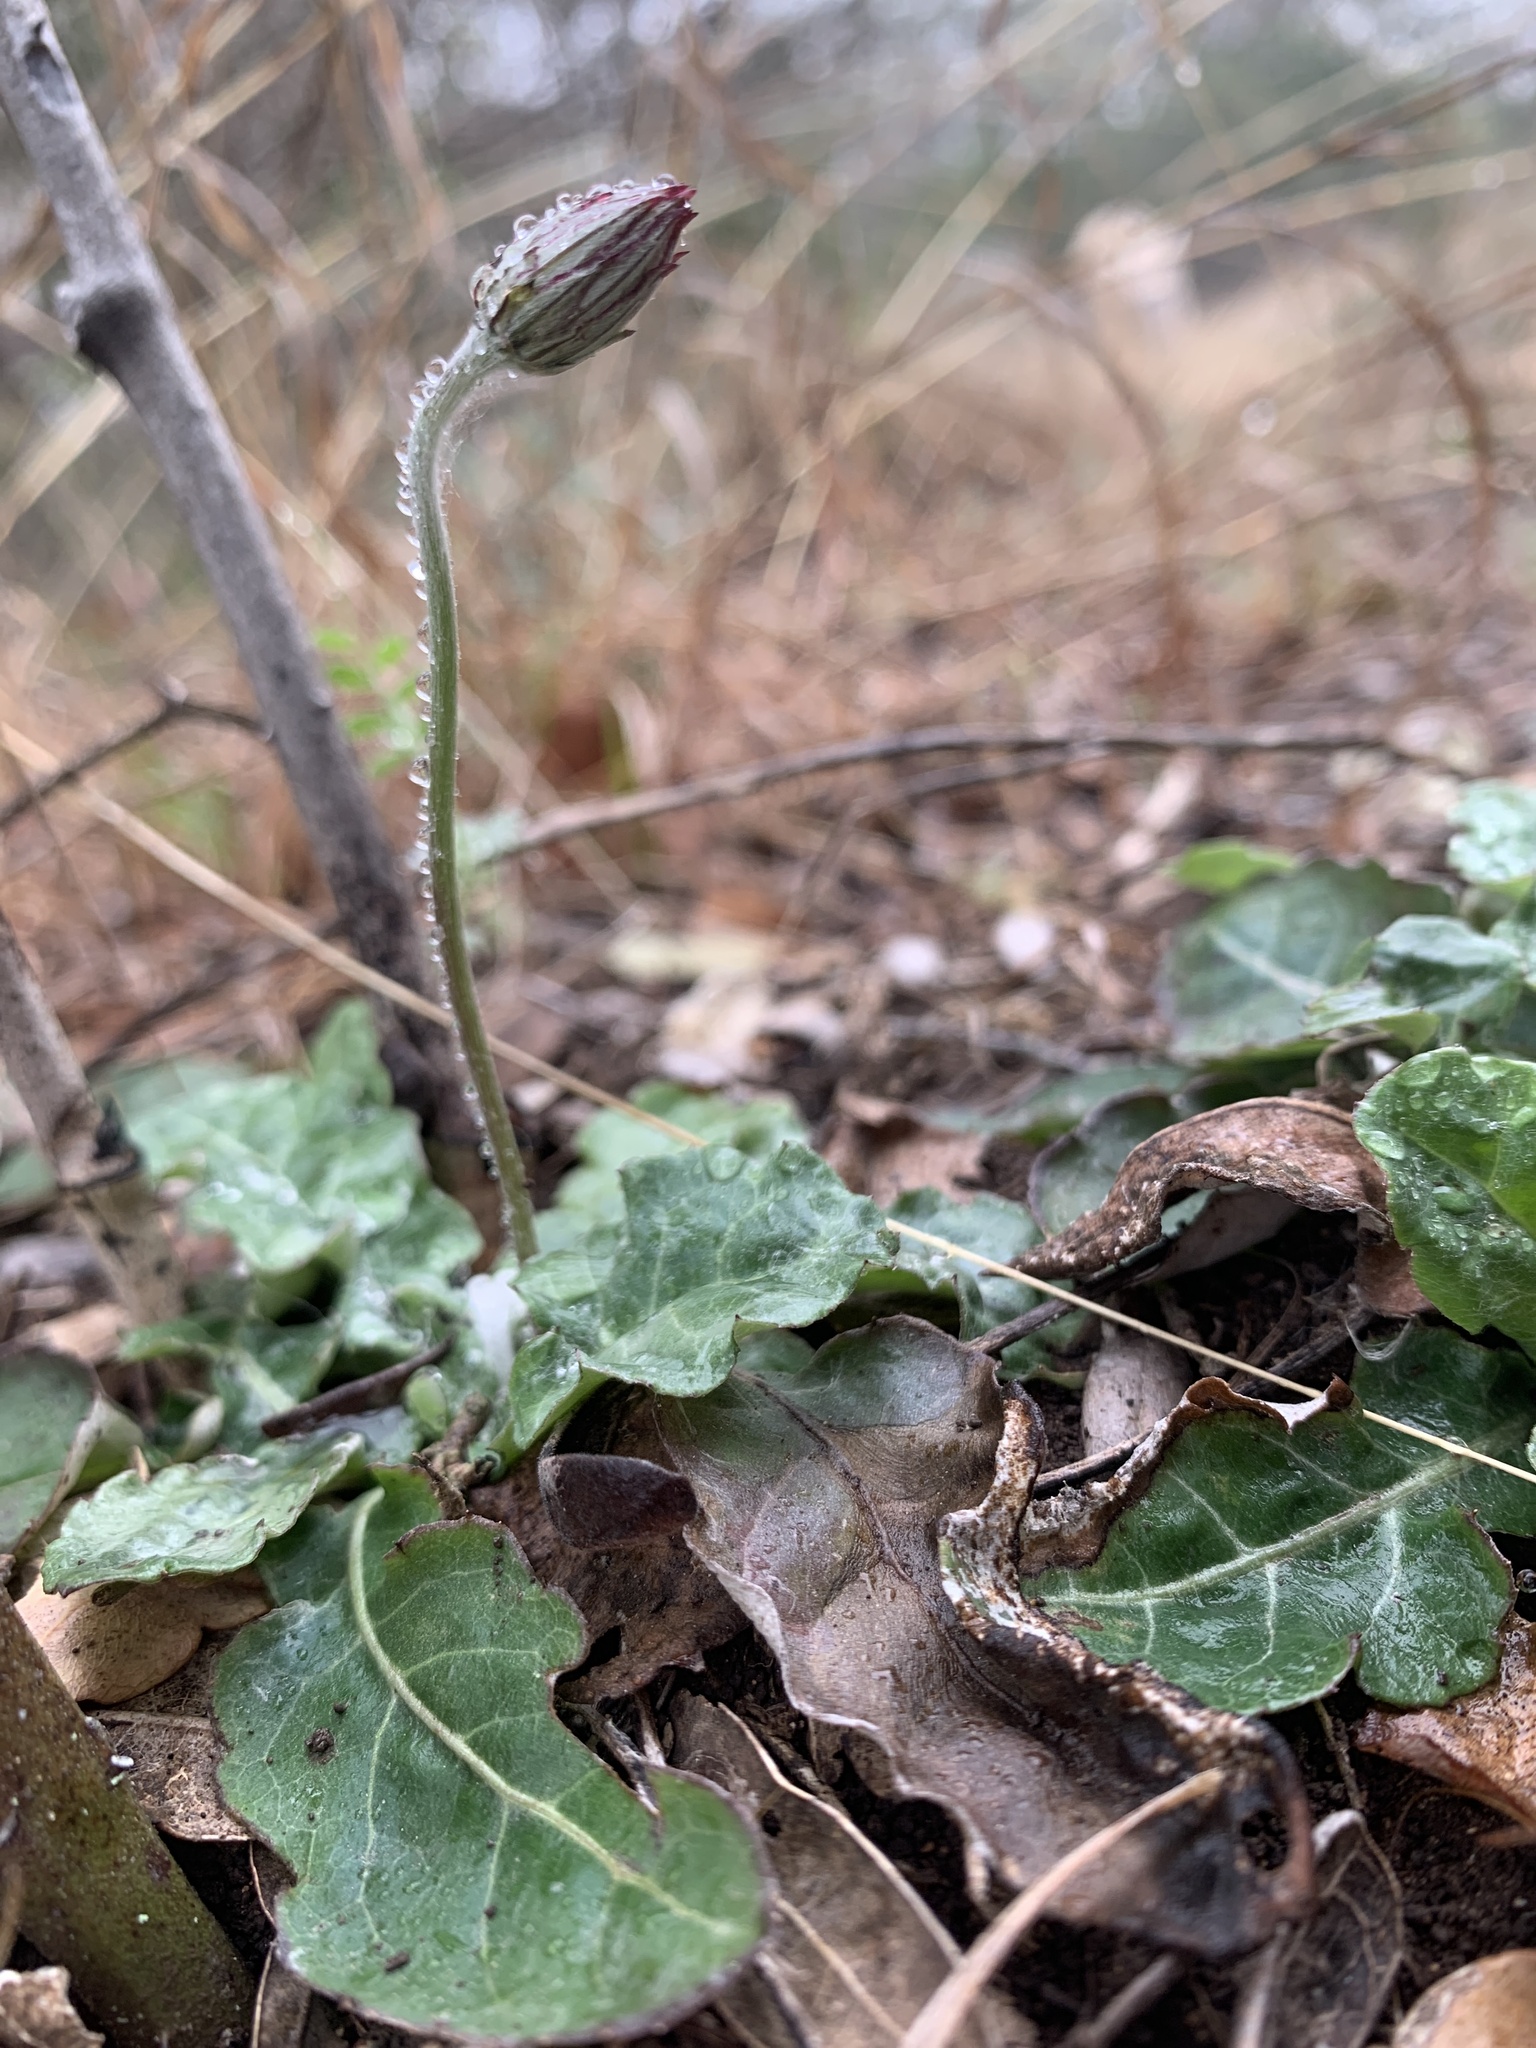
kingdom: Plantae
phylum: Tracheophyta
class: Magnoliopsida
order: Asterales
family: Asteraceae
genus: Chaptalia
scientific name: Chaptalia texana
